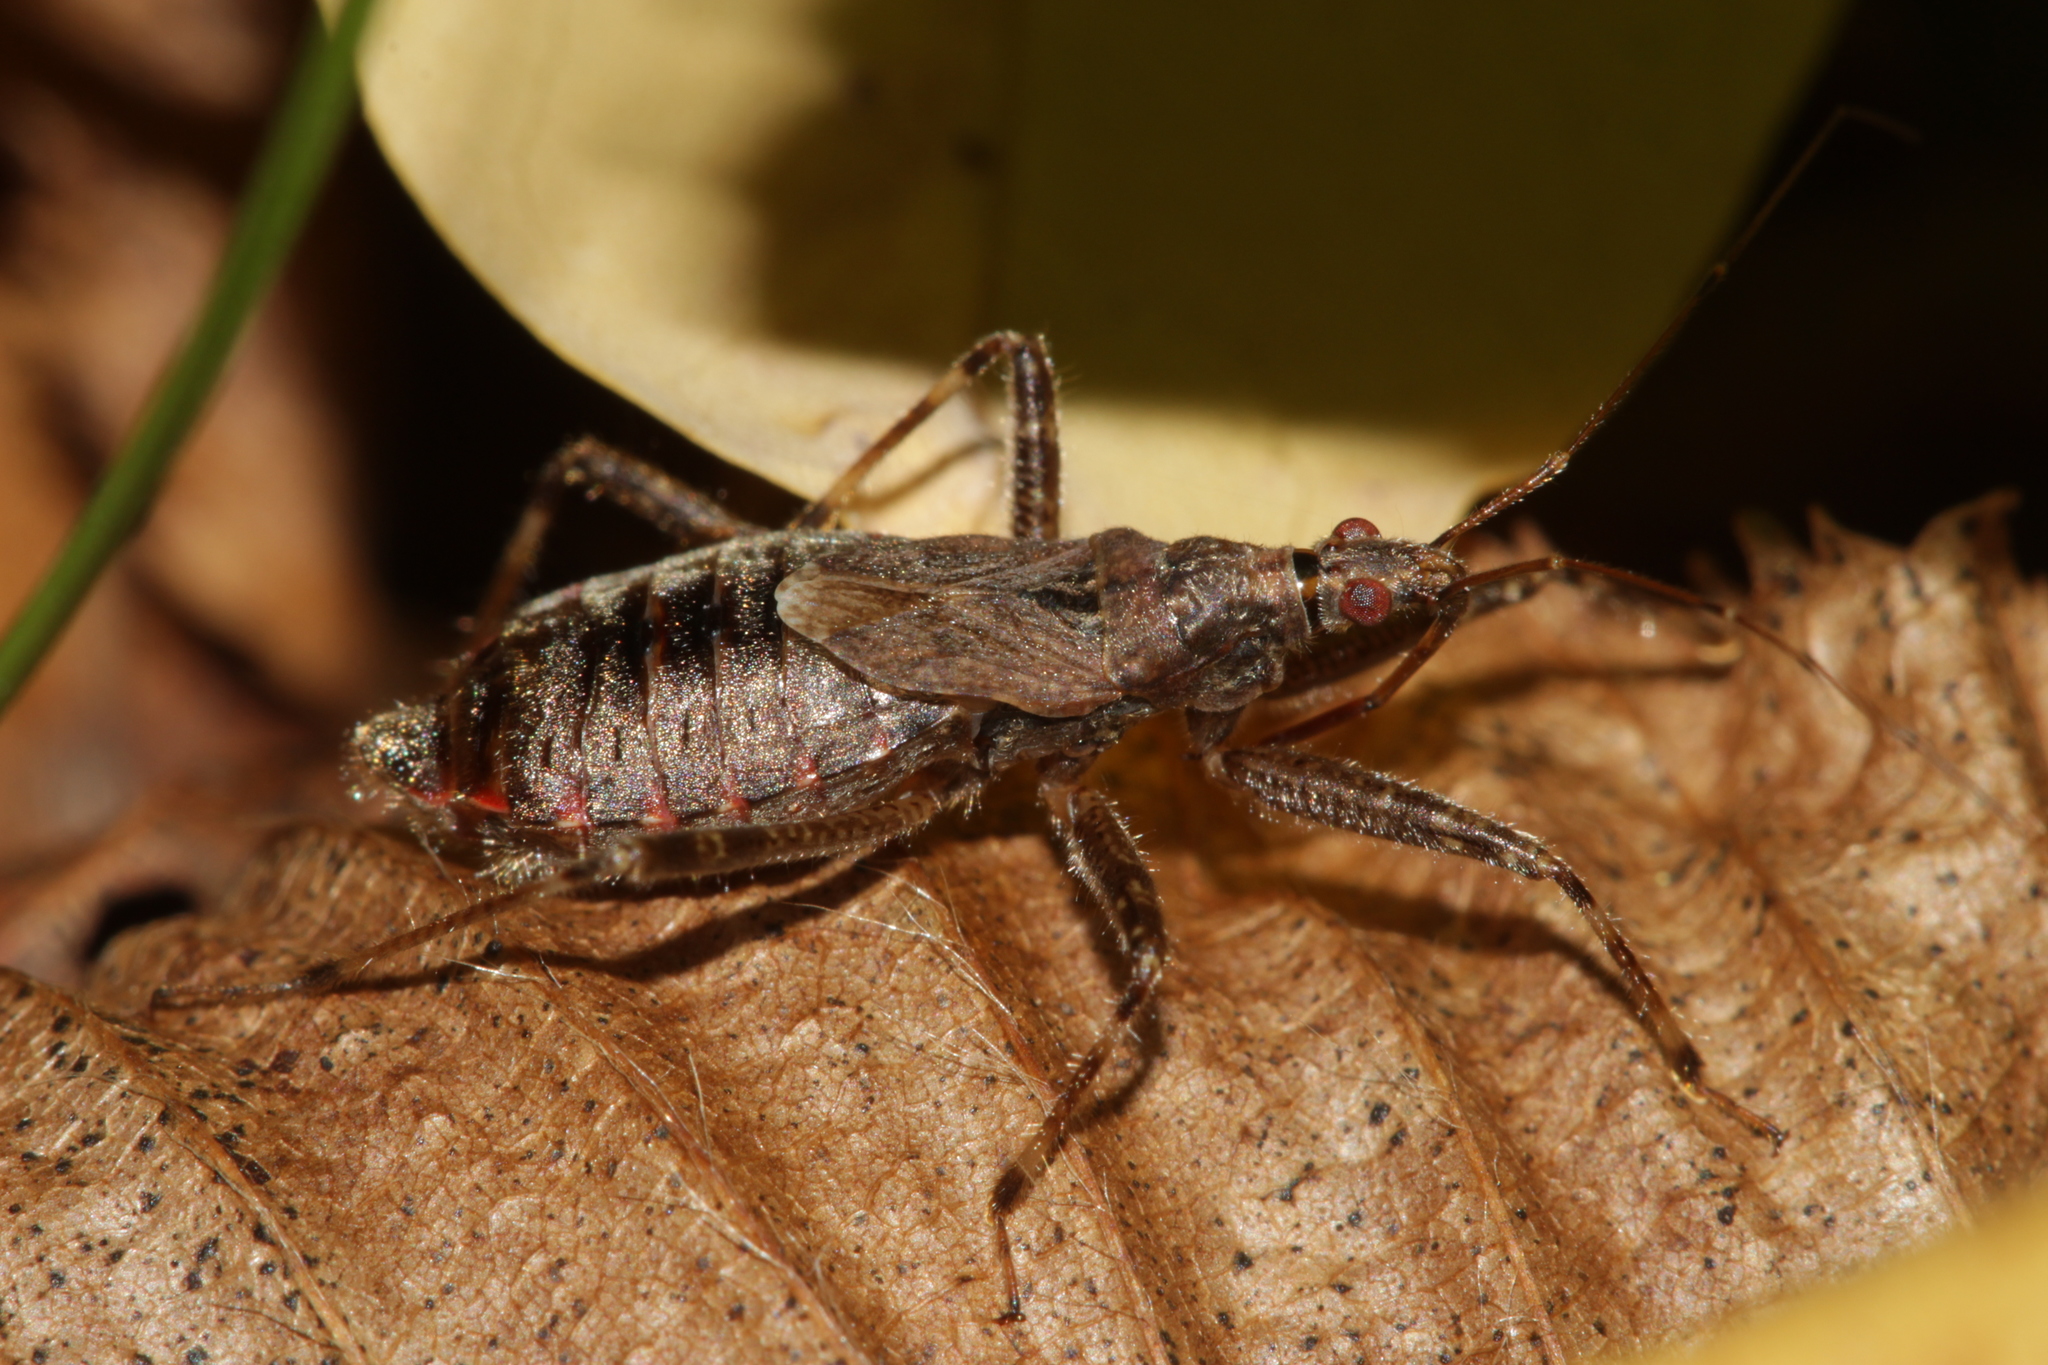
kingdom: Animalia
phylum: Arthropoda
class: Insecta
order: Hemiptera
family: Nabidae
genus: Himacerus
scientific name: Himacerus apterus
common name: Tree damsel bug
